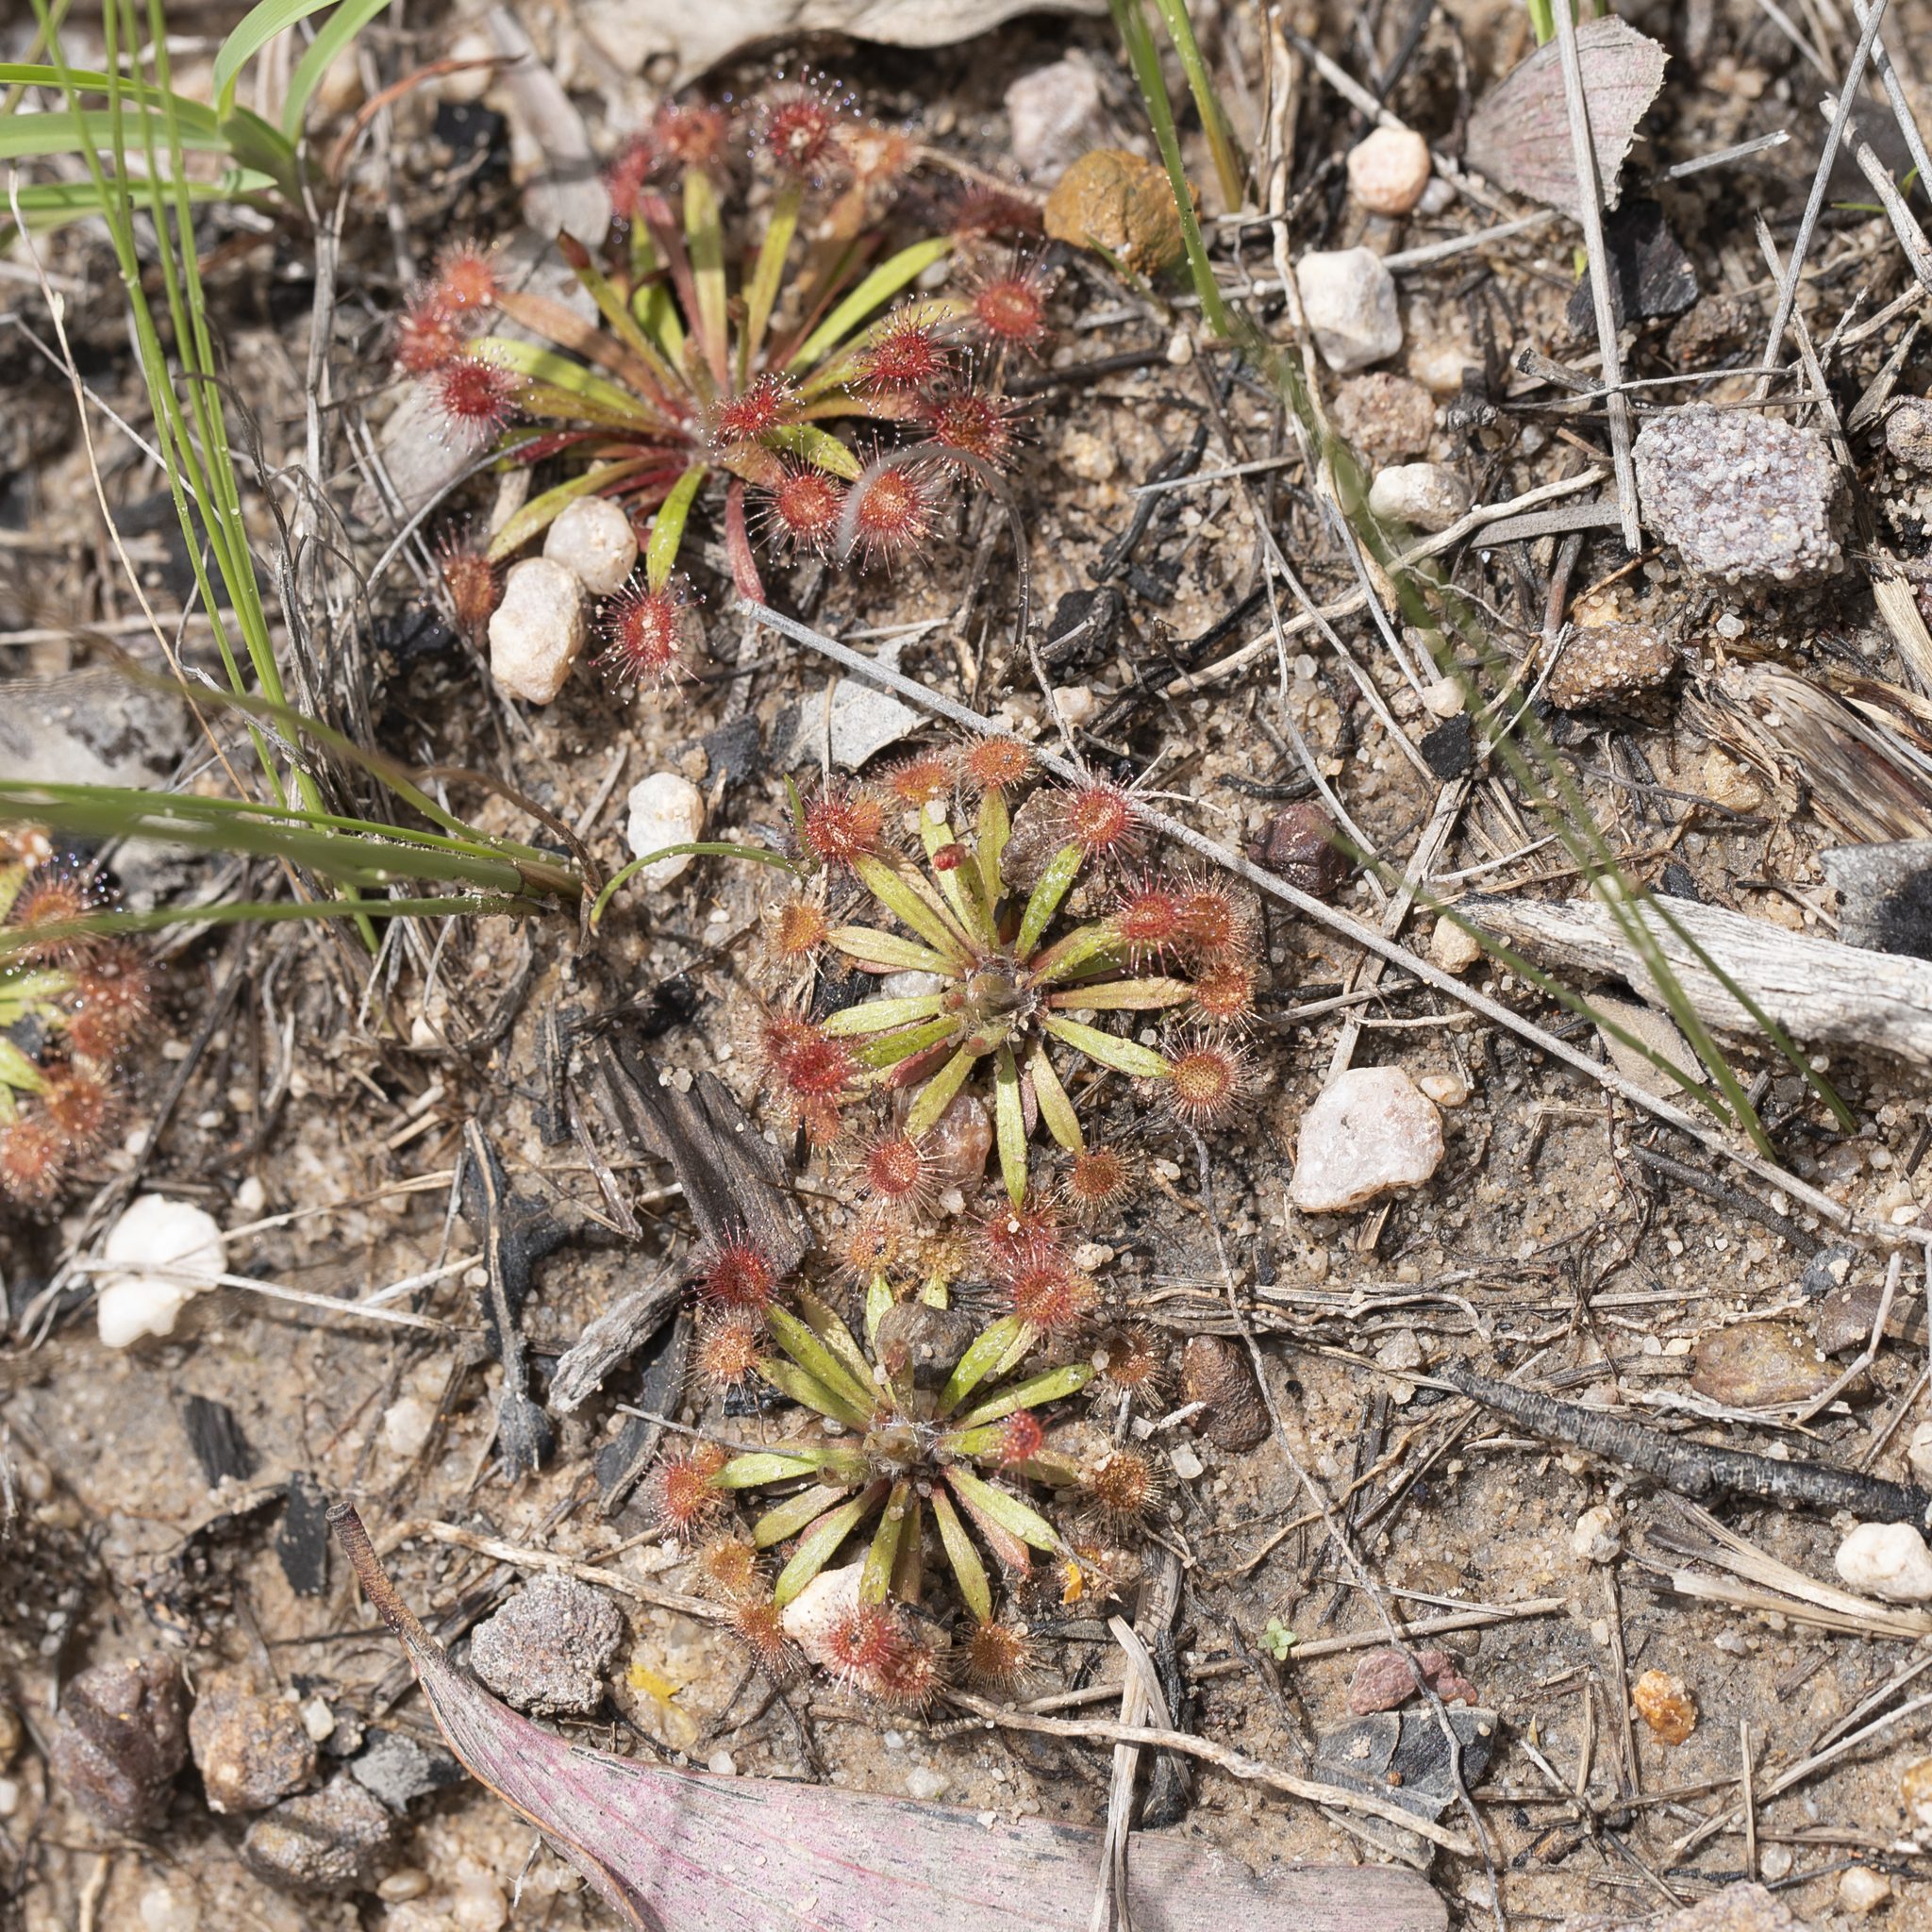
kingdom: Plantae
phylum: Tracheophyta
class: Magnoliopsida
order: Caryophyllales
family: Droseraceae
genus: Drosera
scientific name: Drosera dilatatopetiolaris
